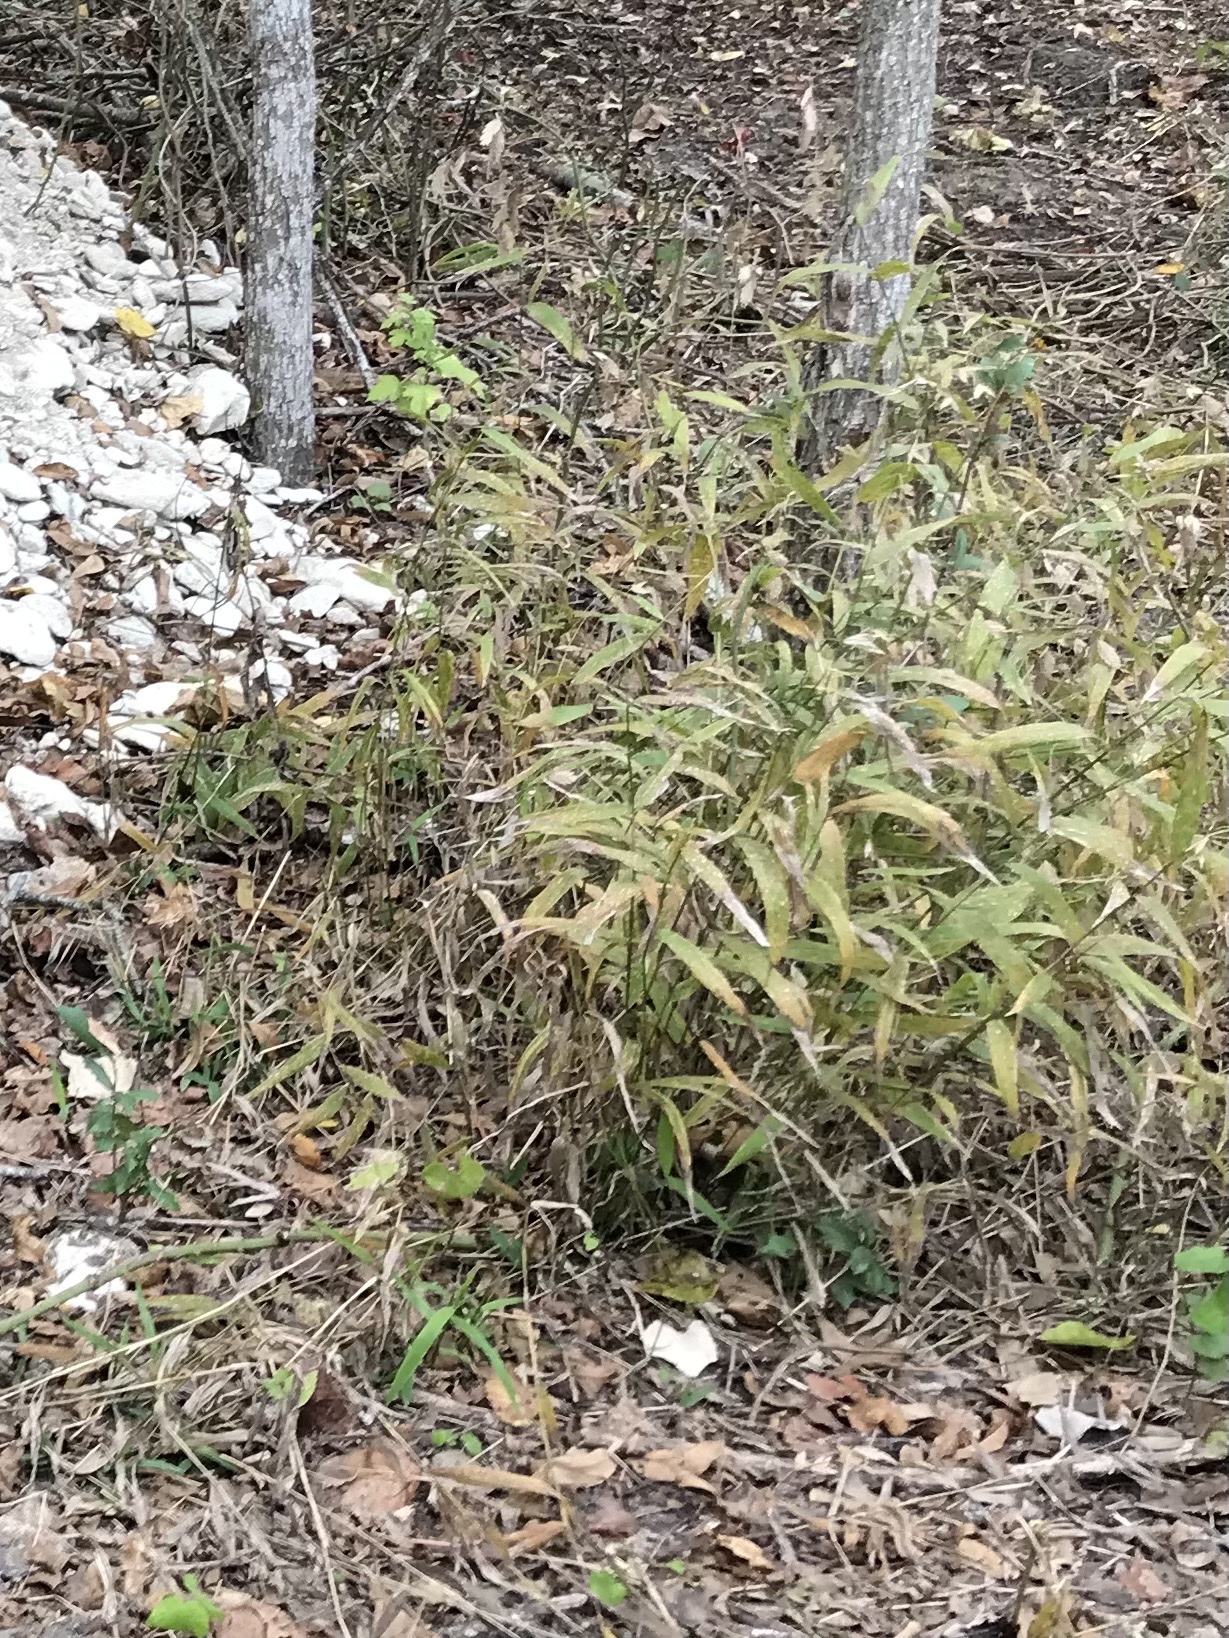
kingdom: Plantae
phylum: Tracheophyta
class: Liliopsida
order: Poales
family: Poaceae
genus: Chasmanthium
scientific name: Chasmanthium latifolium
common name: Broad-leaved chasmanthium
